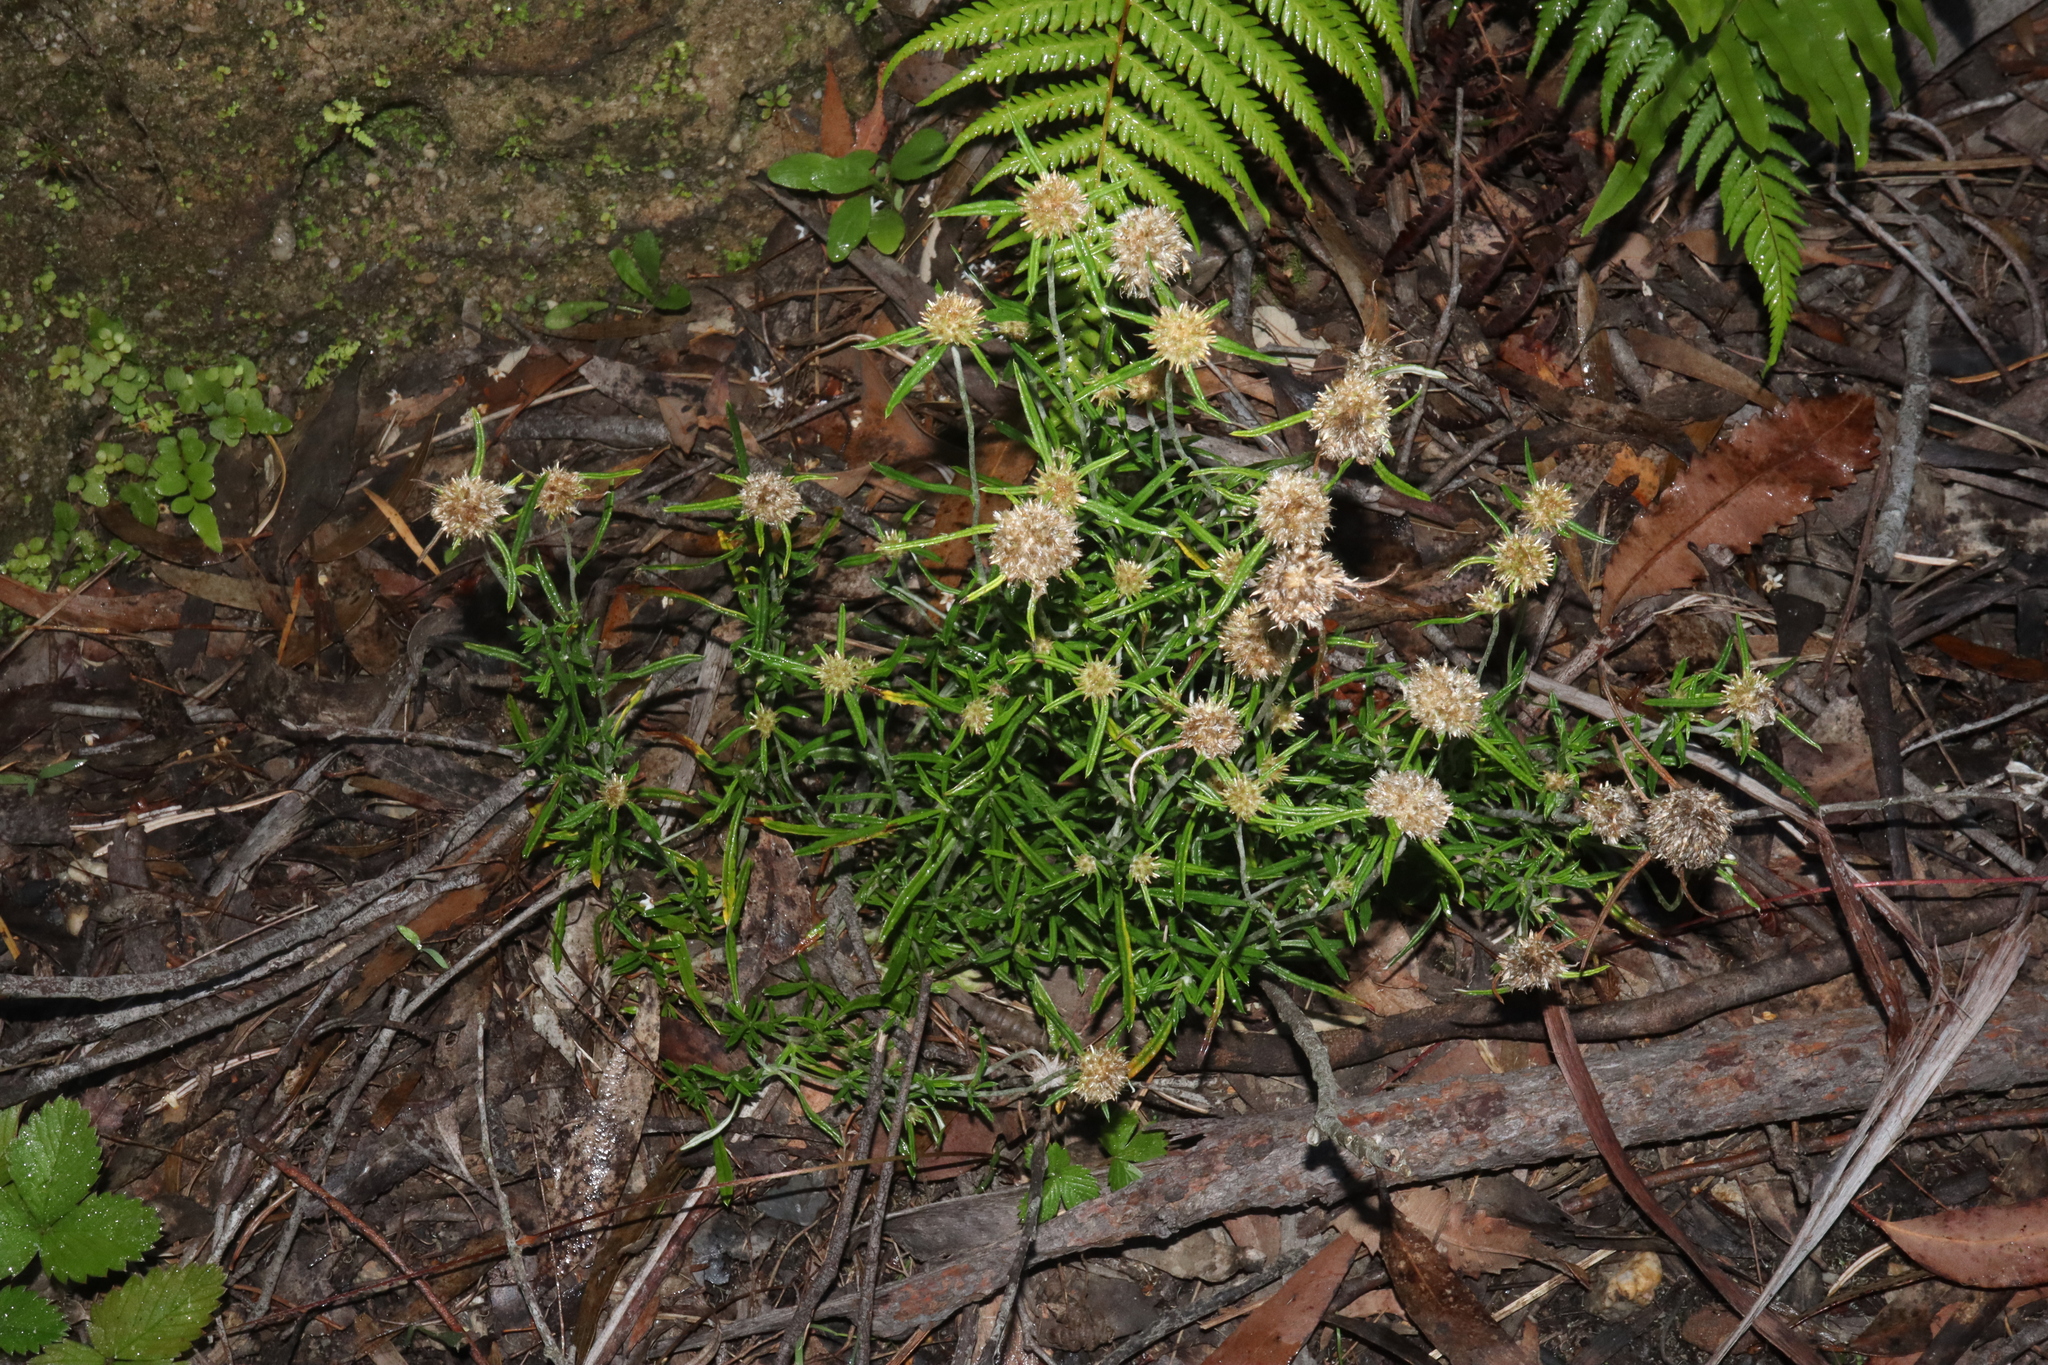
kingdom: Plantae
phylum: Tracheophyta
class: Magnoliopsida
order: Asterales
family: Asteraceae
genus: Euchiton
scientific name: Euchiton sphaericus
